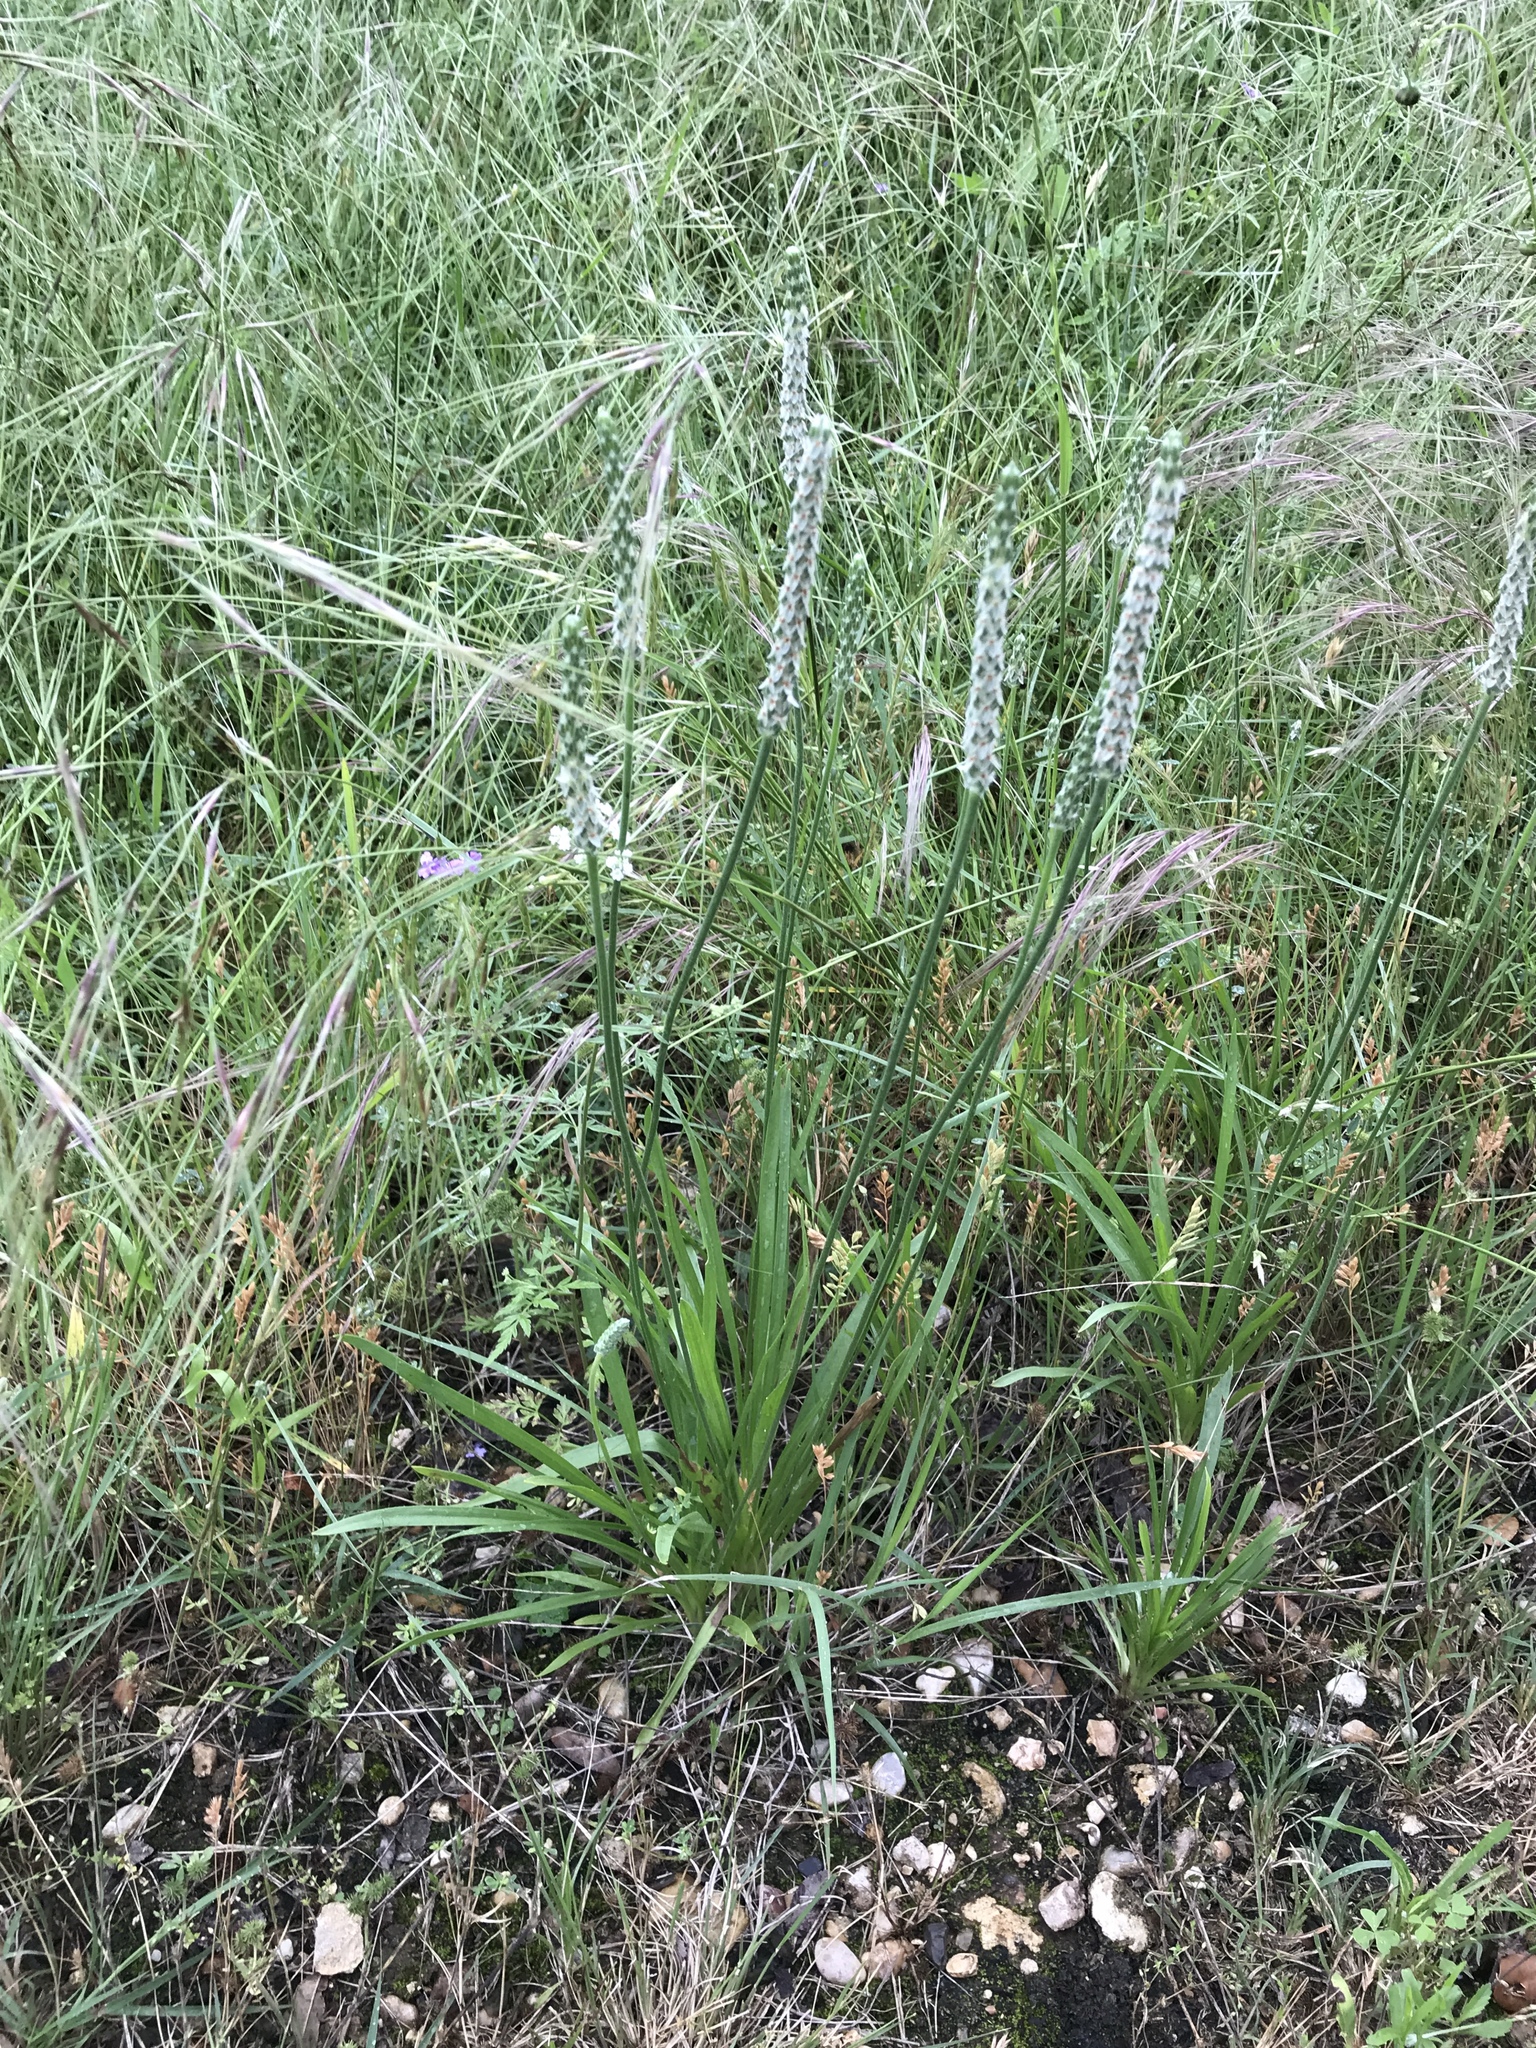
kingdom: Plantae
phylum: Tracheophyta
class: Magnoliopsida
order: Lamiales
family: Plantaginaceae
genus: Plantago
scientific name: Plantago wrightiana
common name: Wright's plantain
